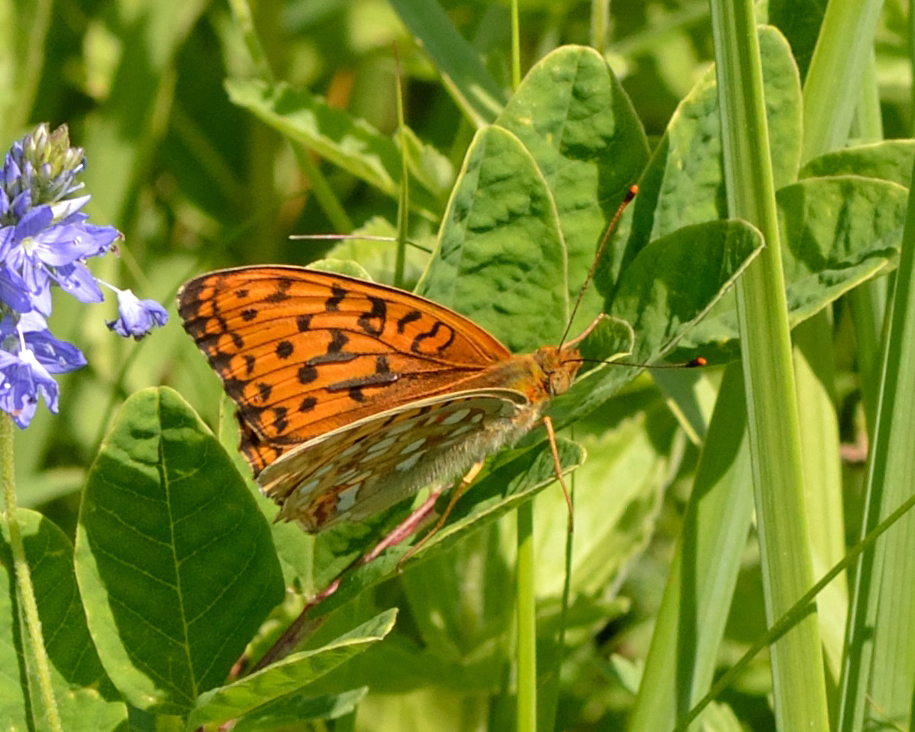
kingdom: Animalia
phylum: Arthropoda
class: Insecta
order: Lepidoptera
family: Nymphalidae
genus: Fabriciana
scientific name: Fabriciana adippe
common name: High brown fritillary
